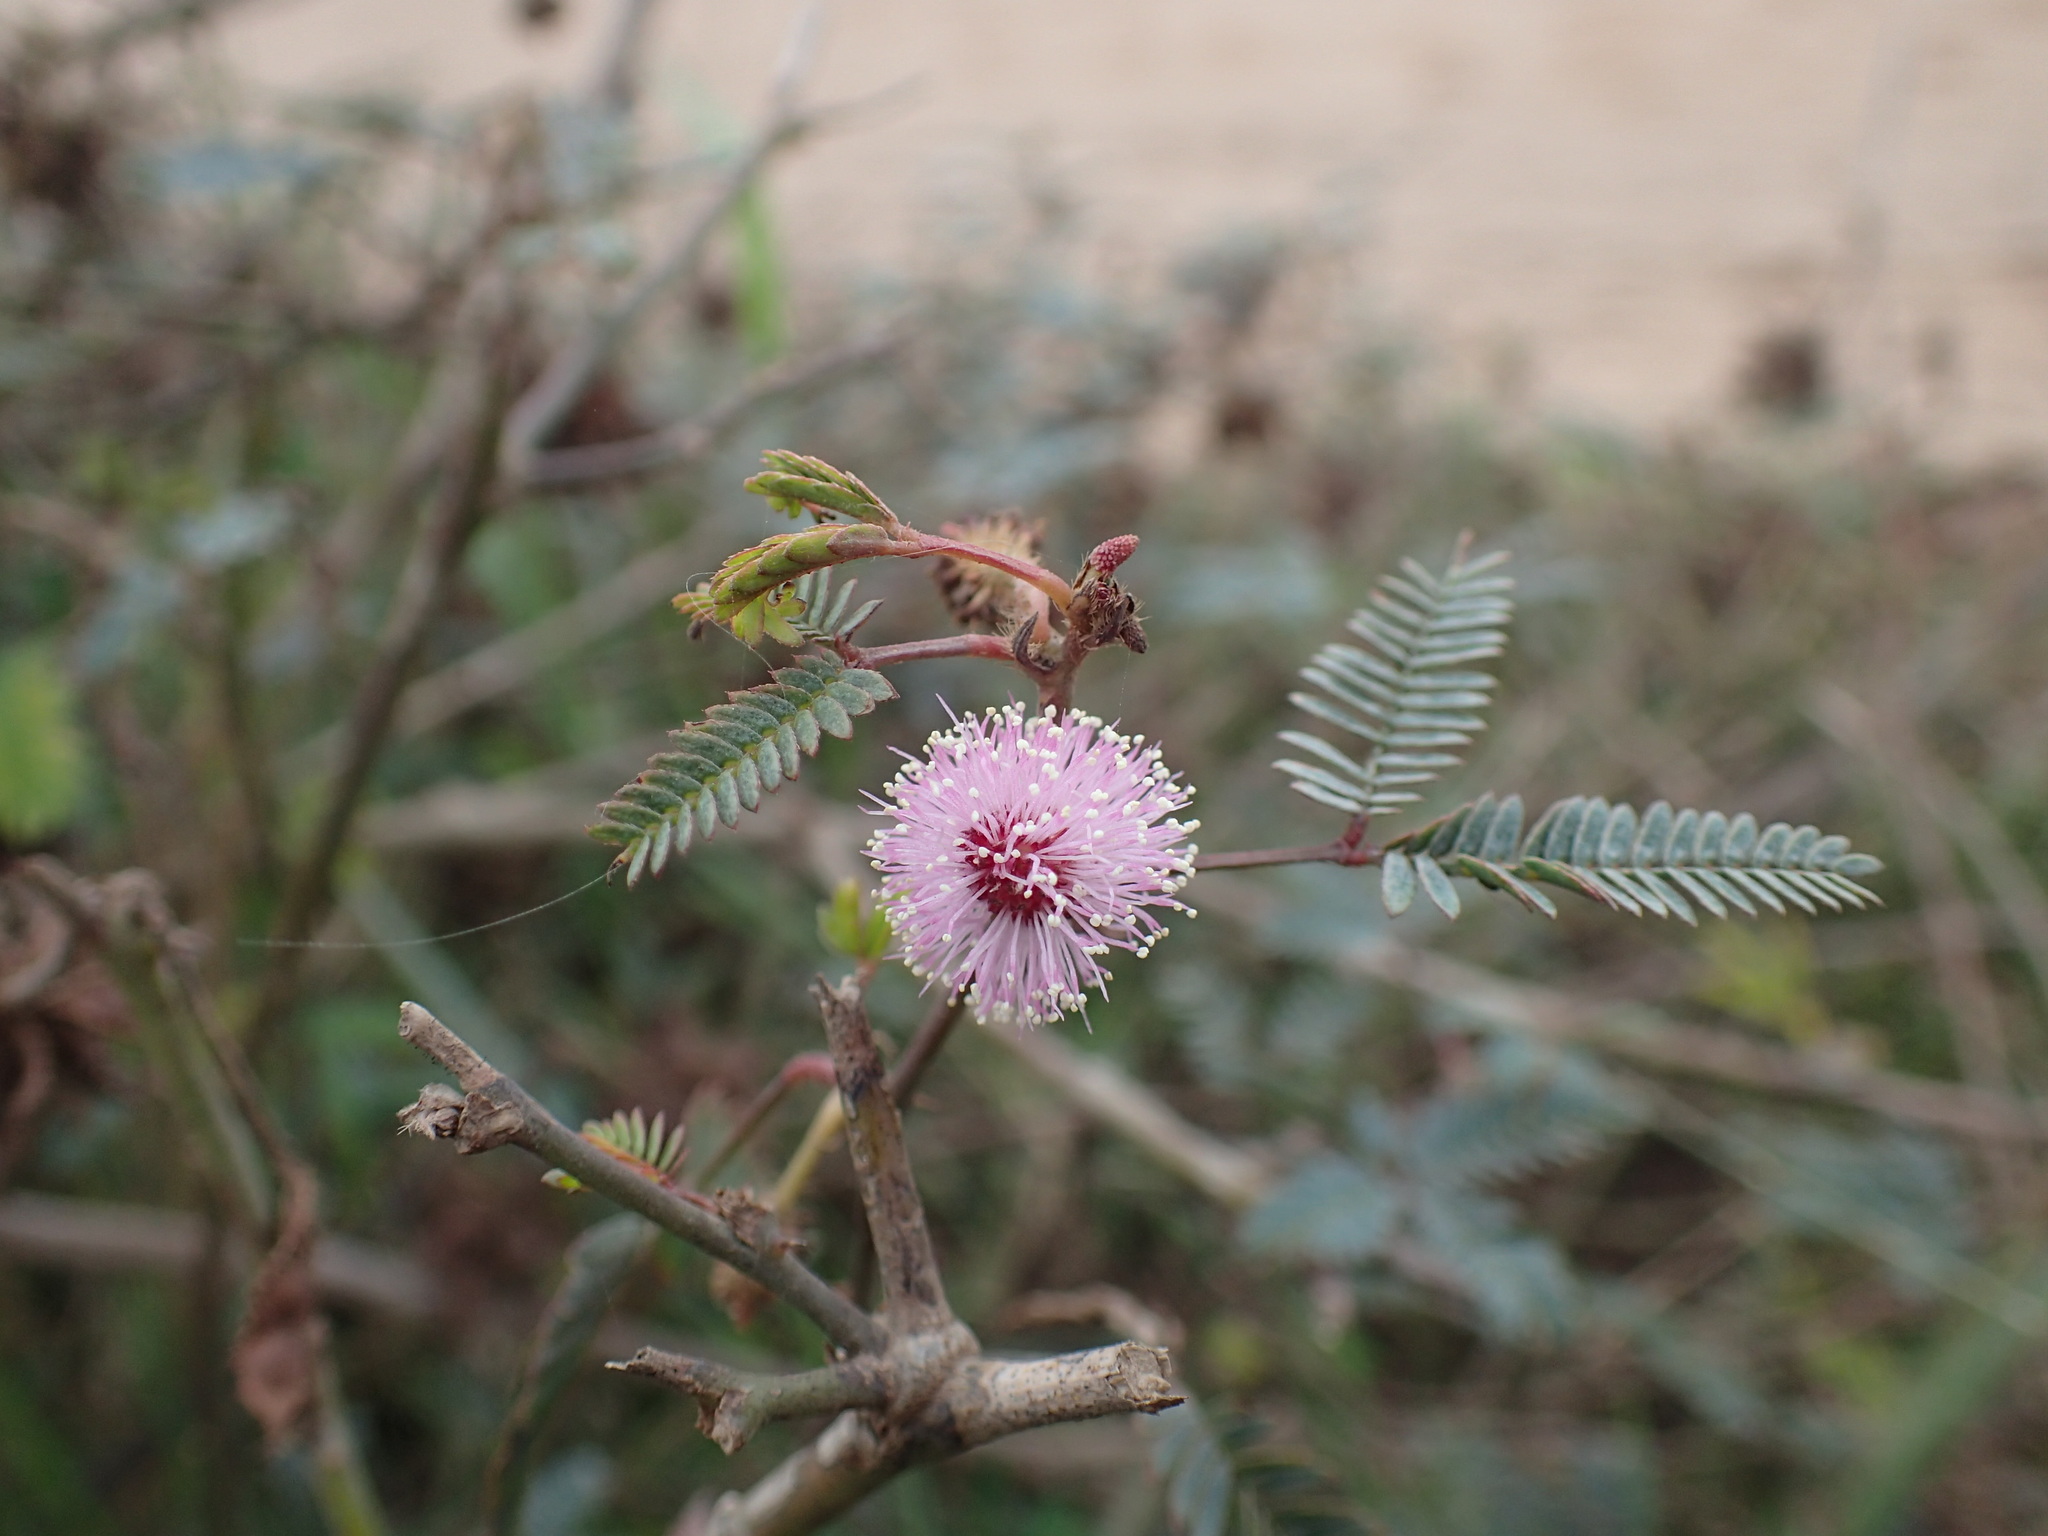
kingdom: Plantae
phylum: Tracheophyta
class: Magnoliopsida
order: Fabales
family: Fabaceae
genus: Mimosa
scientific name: Mimosa pudica
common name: Sensitive plant
